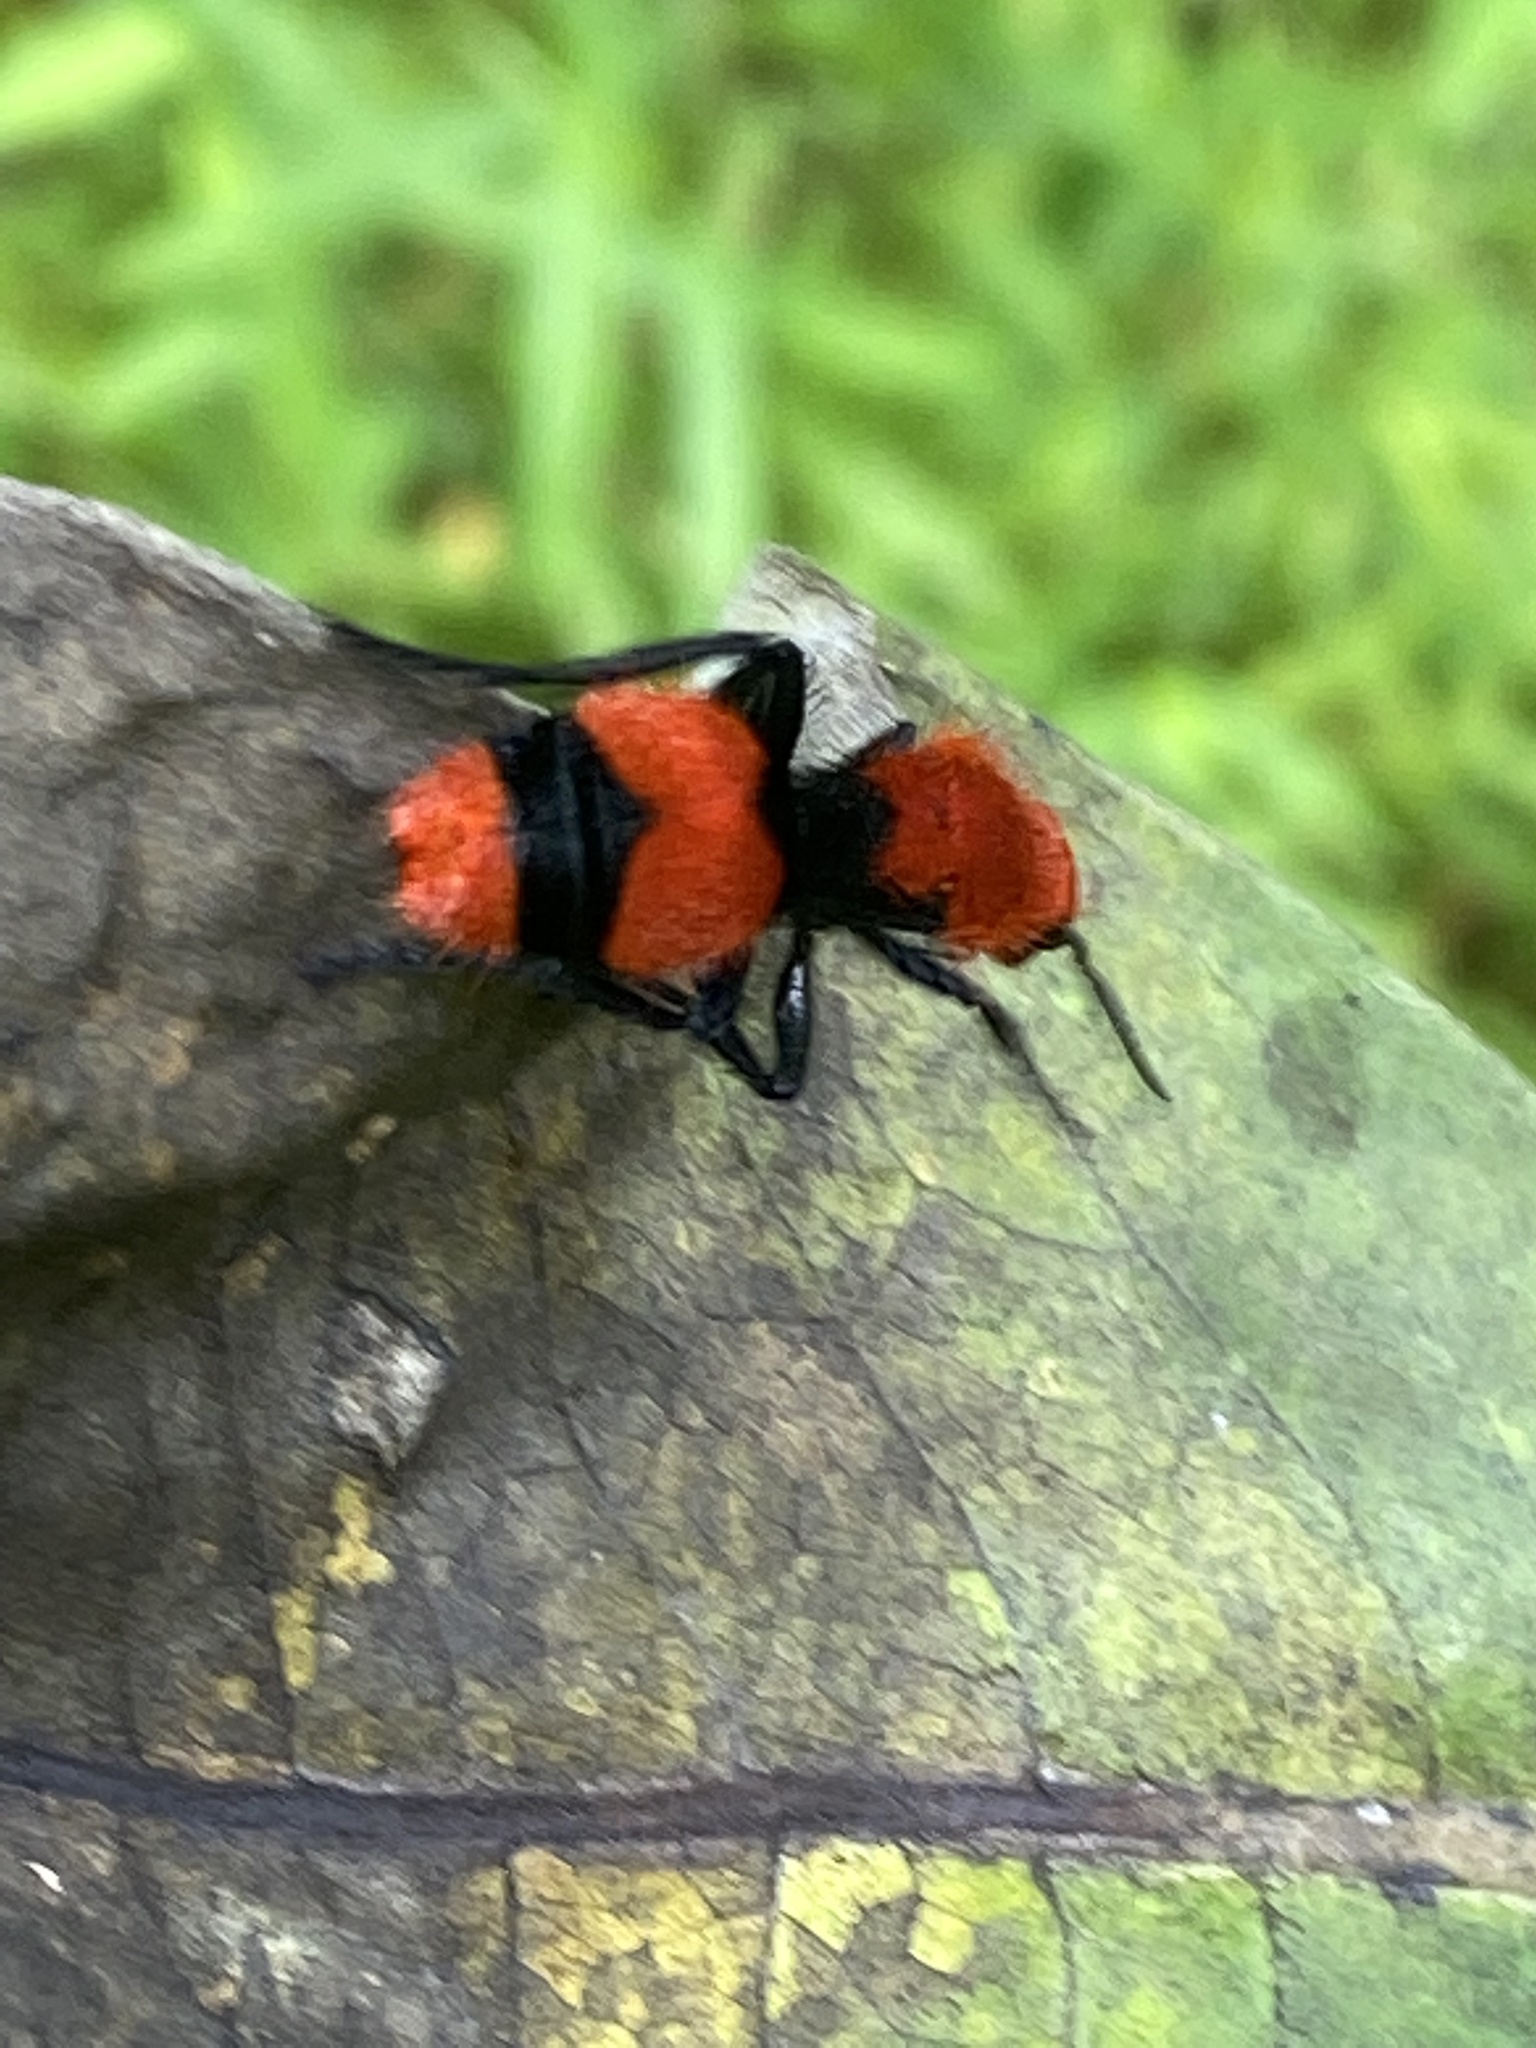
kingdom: Animalia
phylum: Arthropoda
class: Insecta
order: Hymenoptera
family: Mutillidae
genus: Dasymutilla
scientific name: Dasymutilla occidentalis
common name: Common eastern velvet ant
